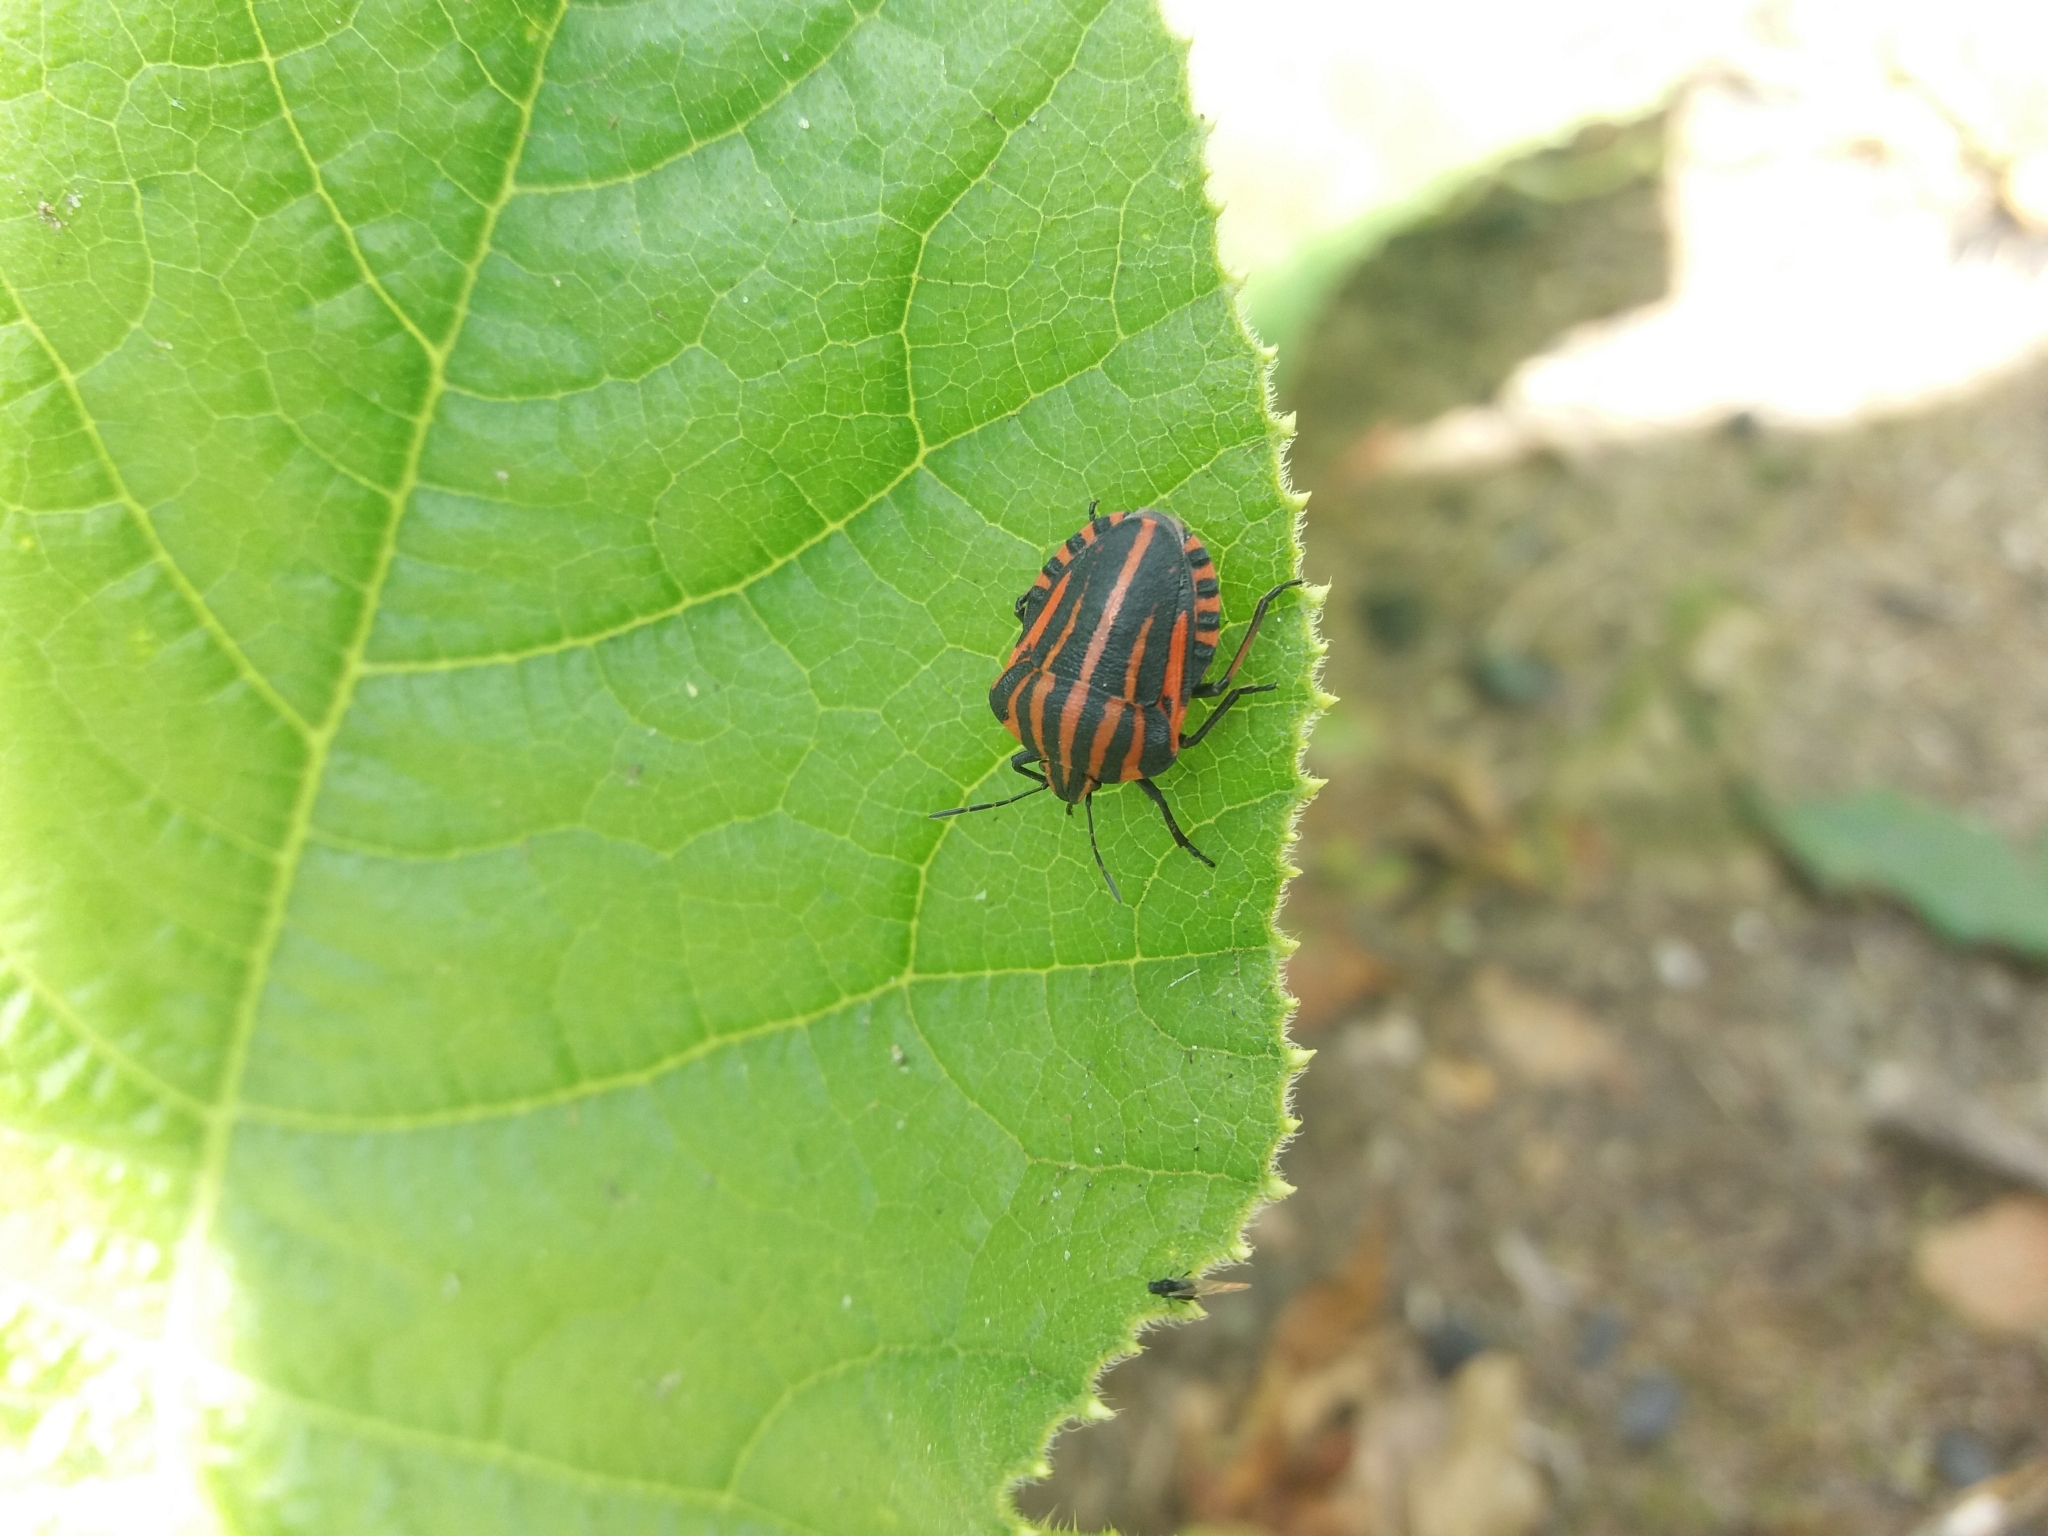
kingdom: Animalia
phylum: Arthropoda
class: Insecta
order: Hemiptera
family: Pentatomidae
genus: Graphosoma
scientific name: Graphosoma italicum
